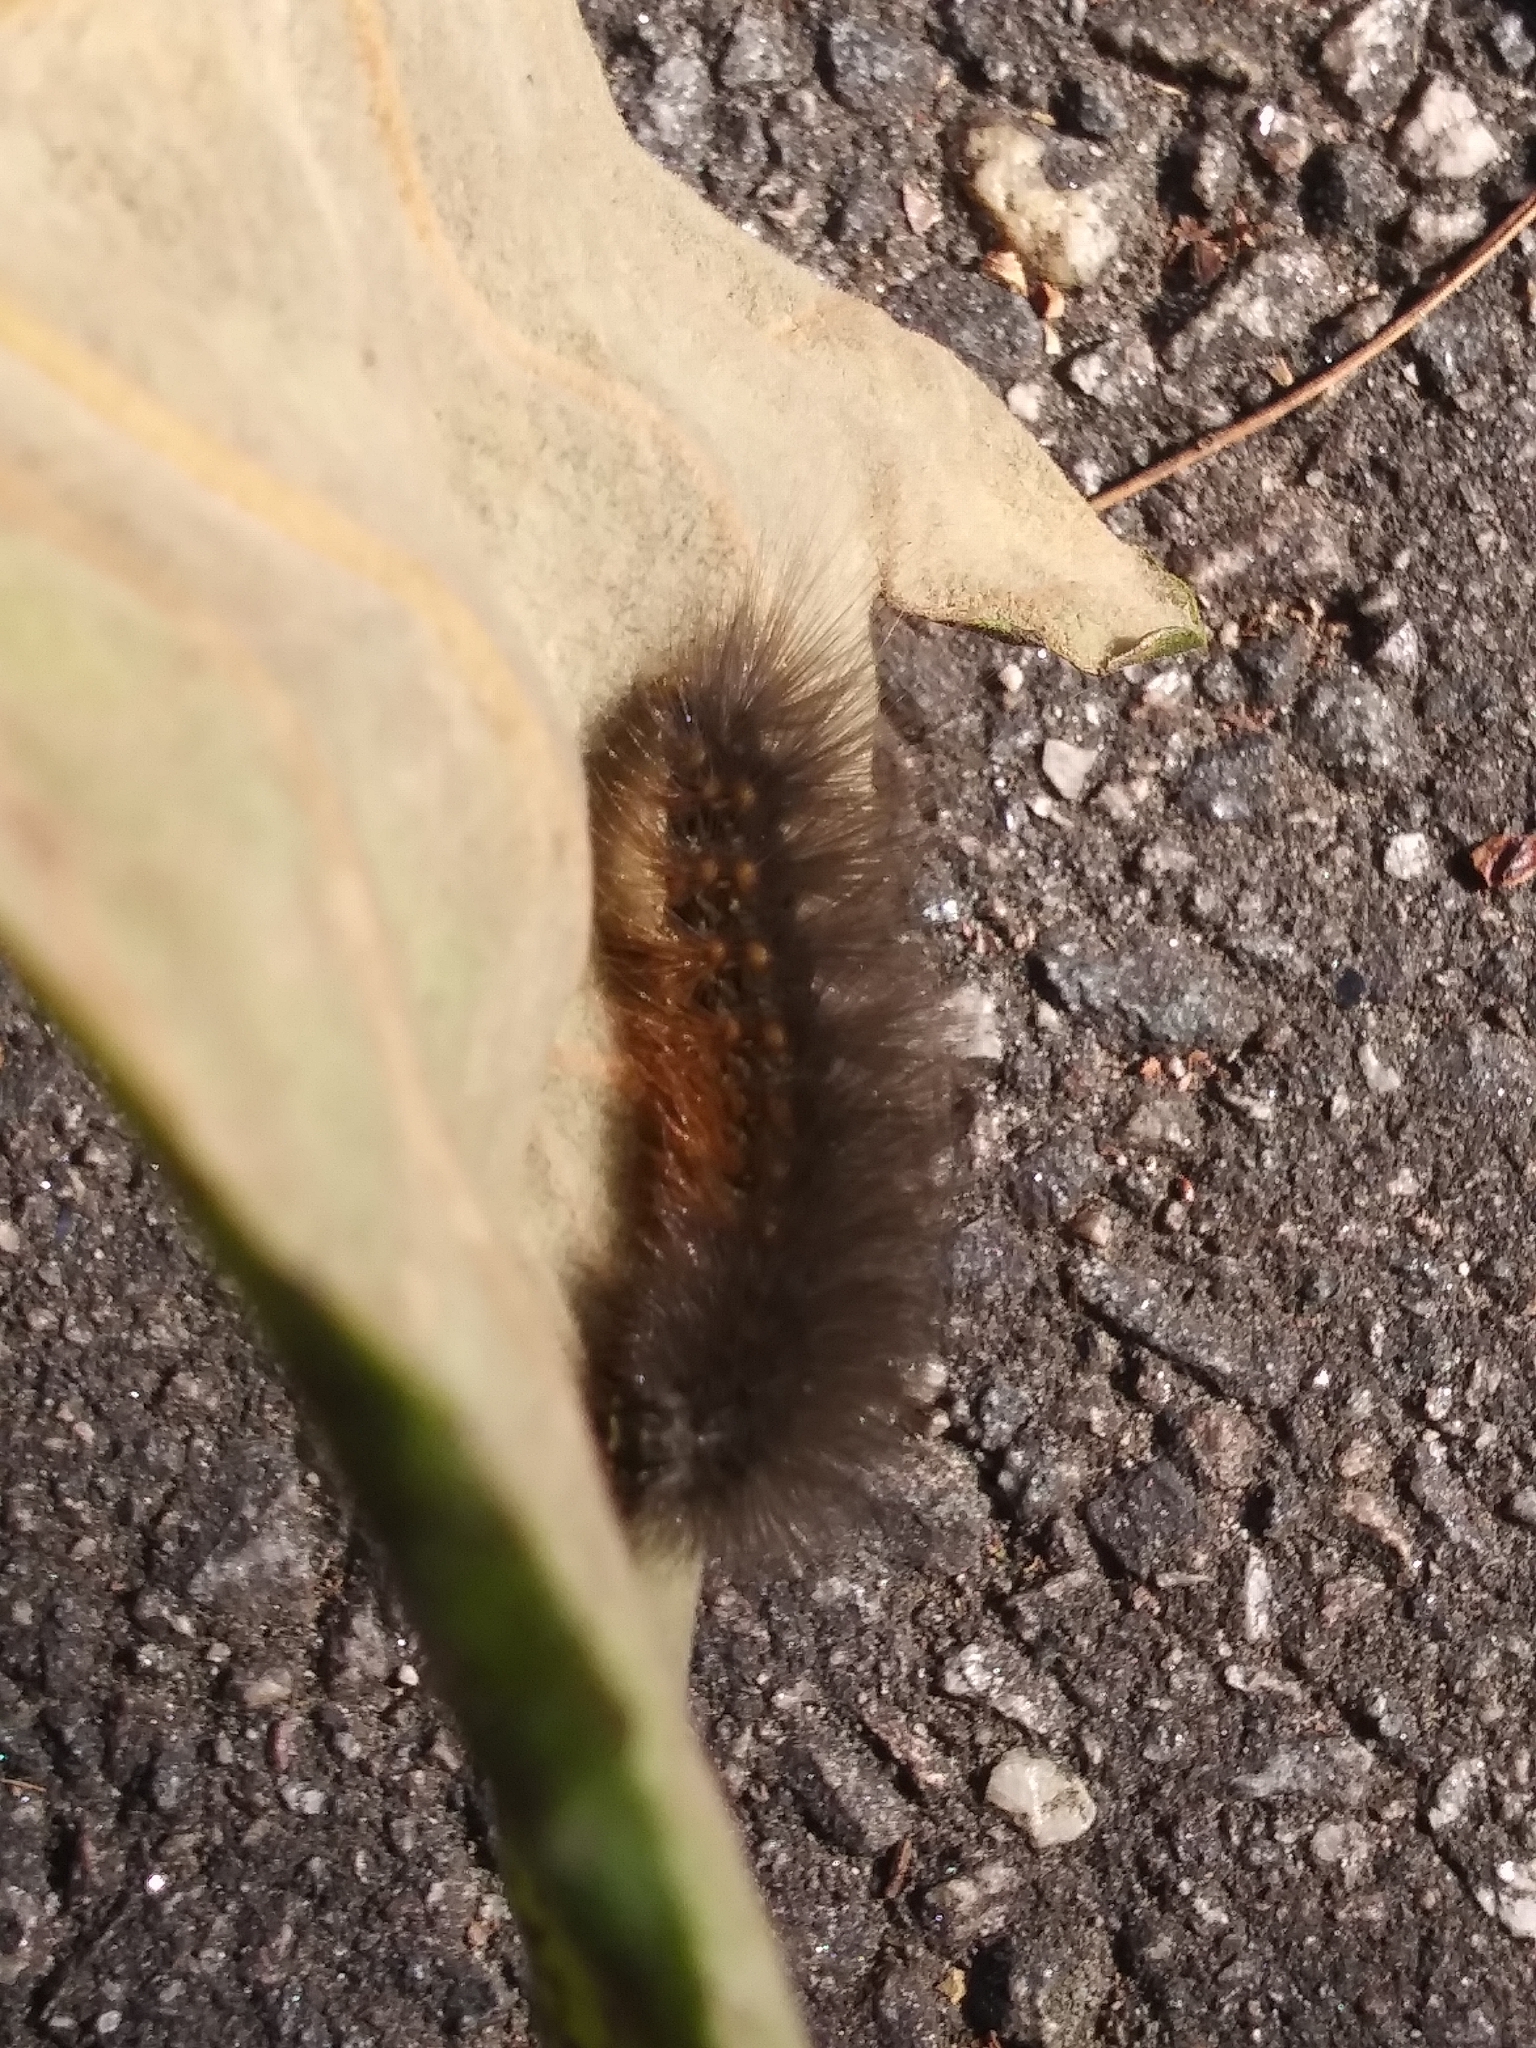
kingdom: Animalia
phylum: Arthropoda
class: Insecta
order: Lepidoptera
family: Erebidae
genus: Estigmene
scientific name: Estigmene acrea
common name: Salt marsh moth
